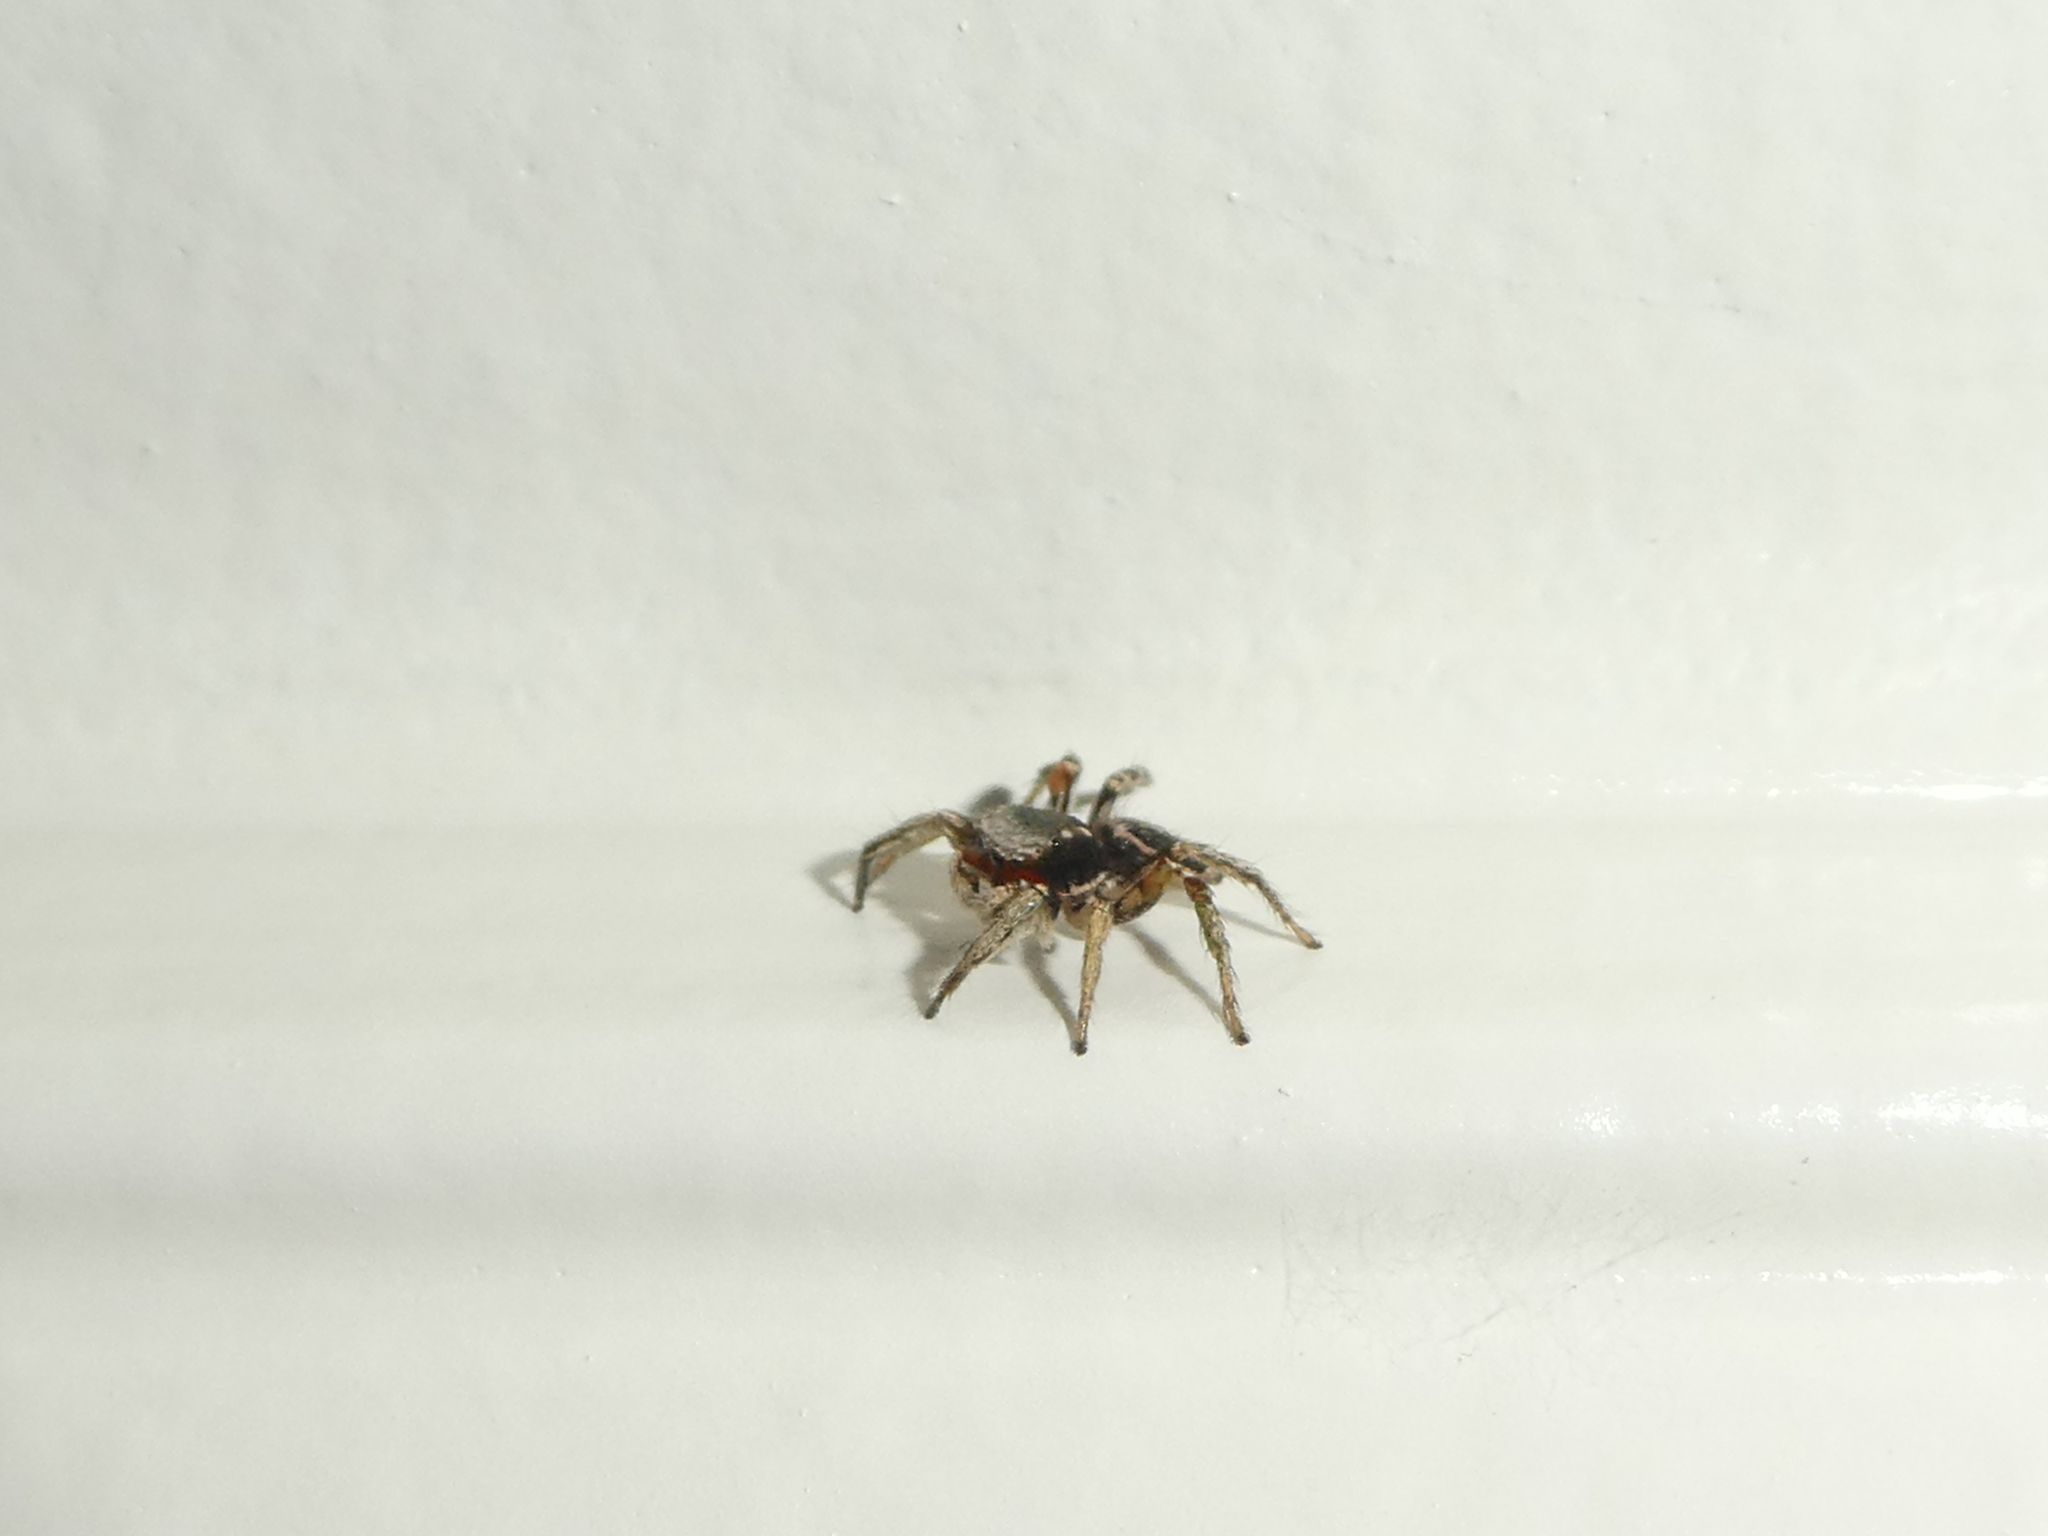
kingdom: Animalia
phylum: Arthropoda
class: Arachnida
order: Araneae
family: Salticidae
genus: Habronattus
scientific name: Habronattus pyrrithrix
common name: Jumping spider
